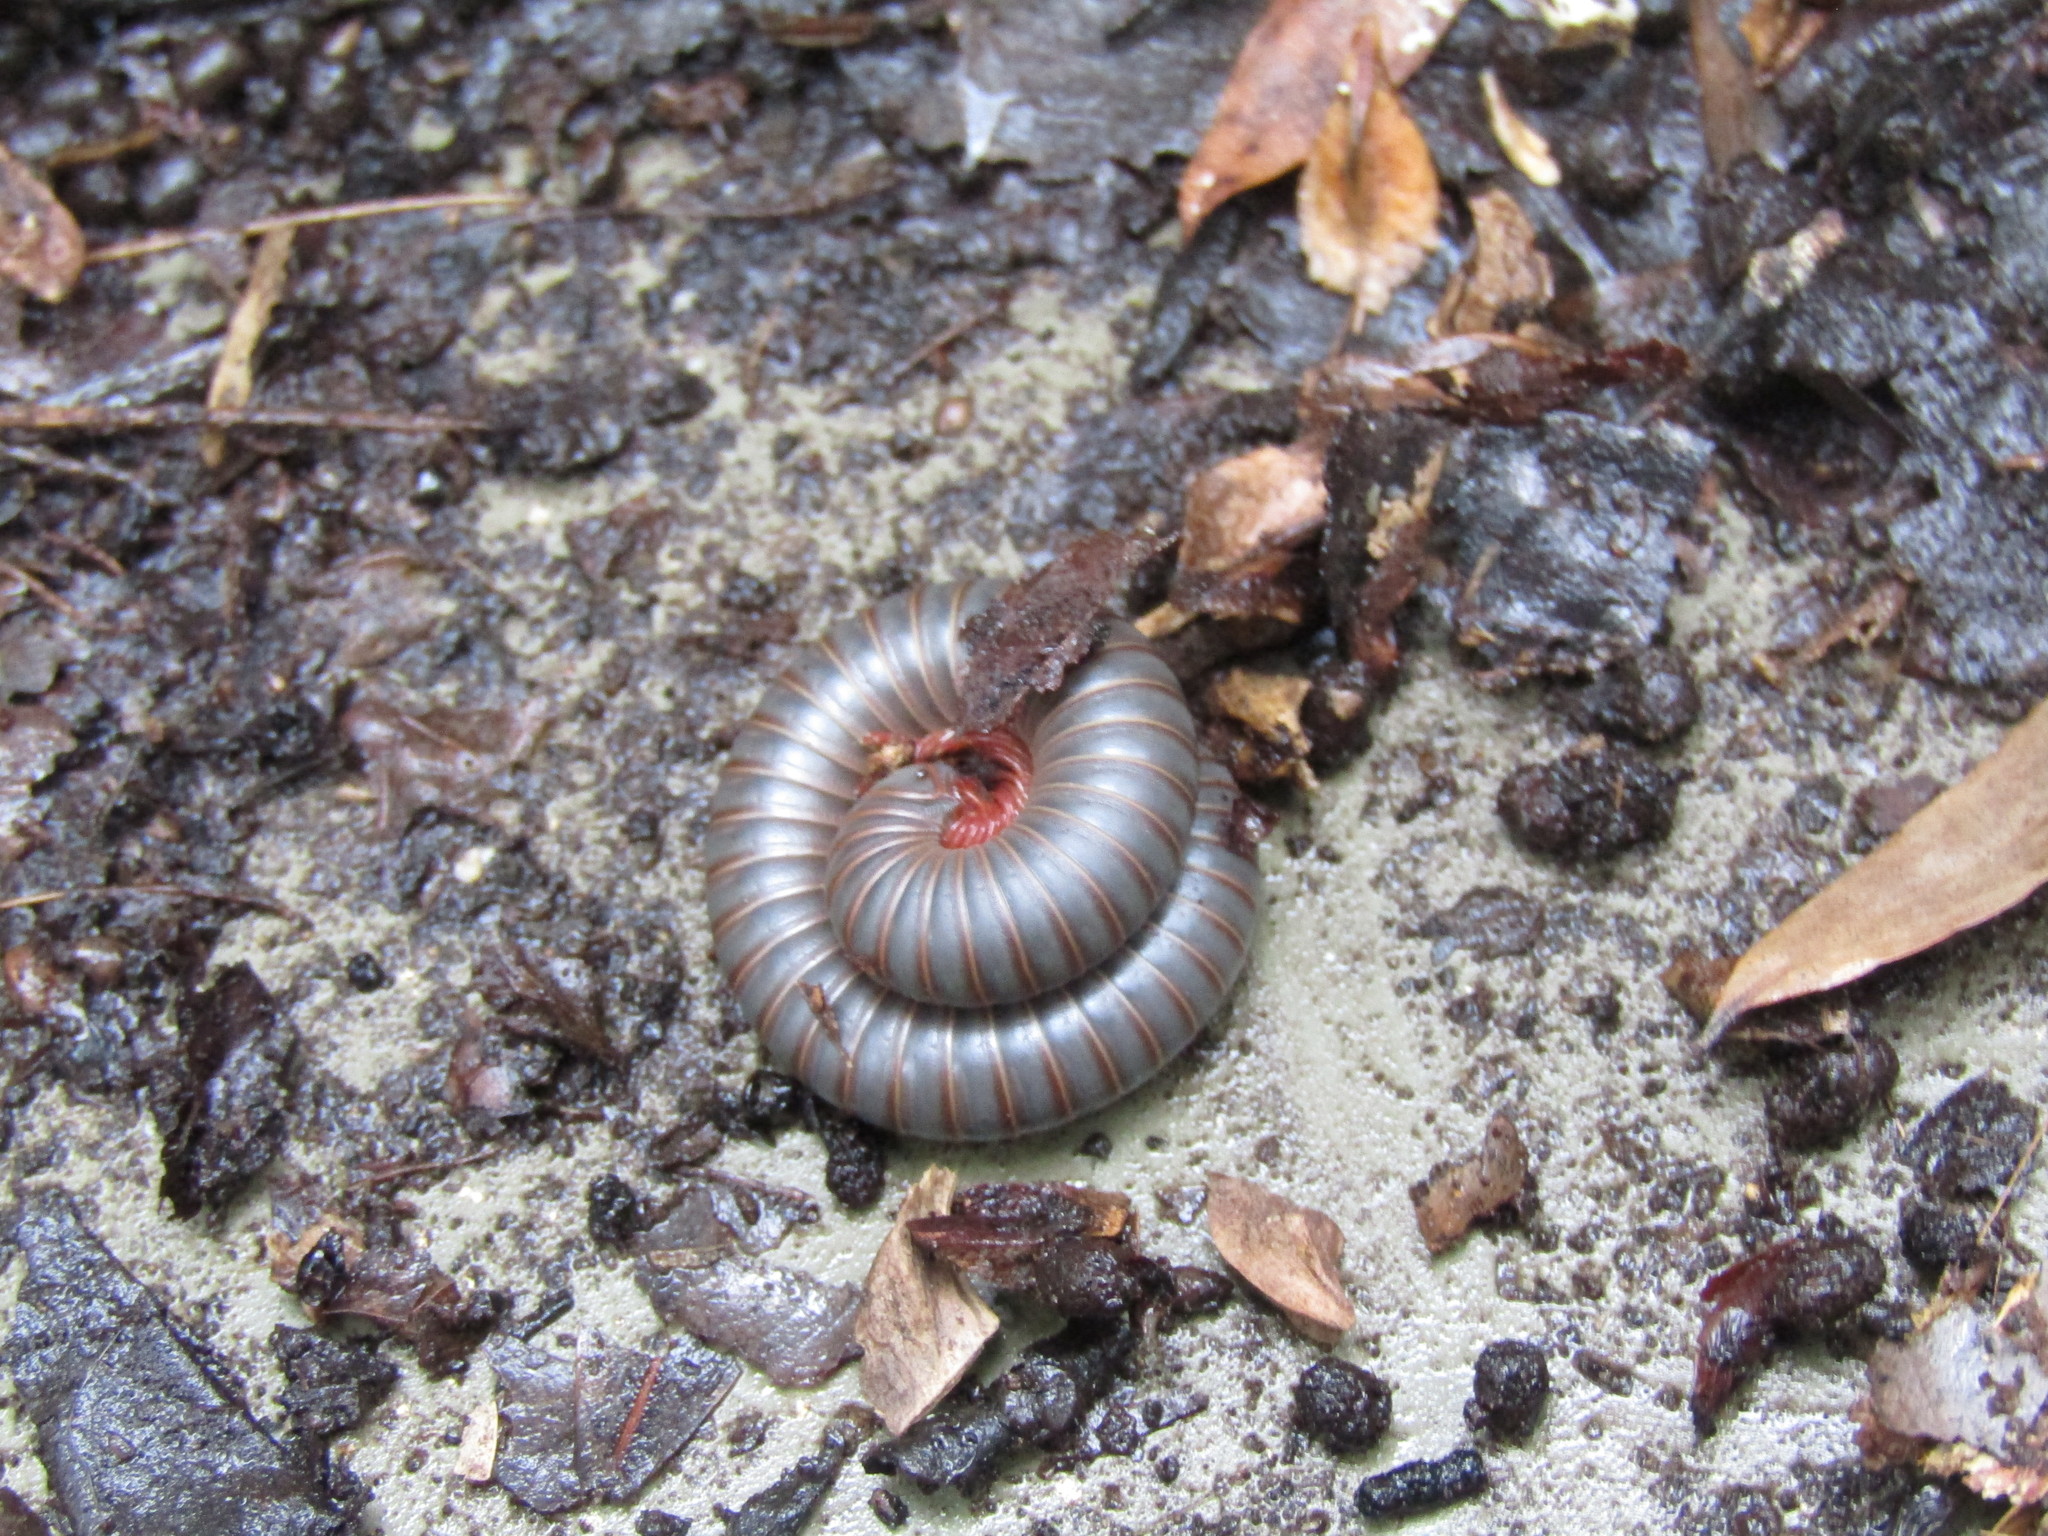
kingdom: Animalia
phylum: Arthropoda
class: Diplopoda
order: Spirobolida
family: Spirobolidae
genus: Narceus
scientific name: Narceus
